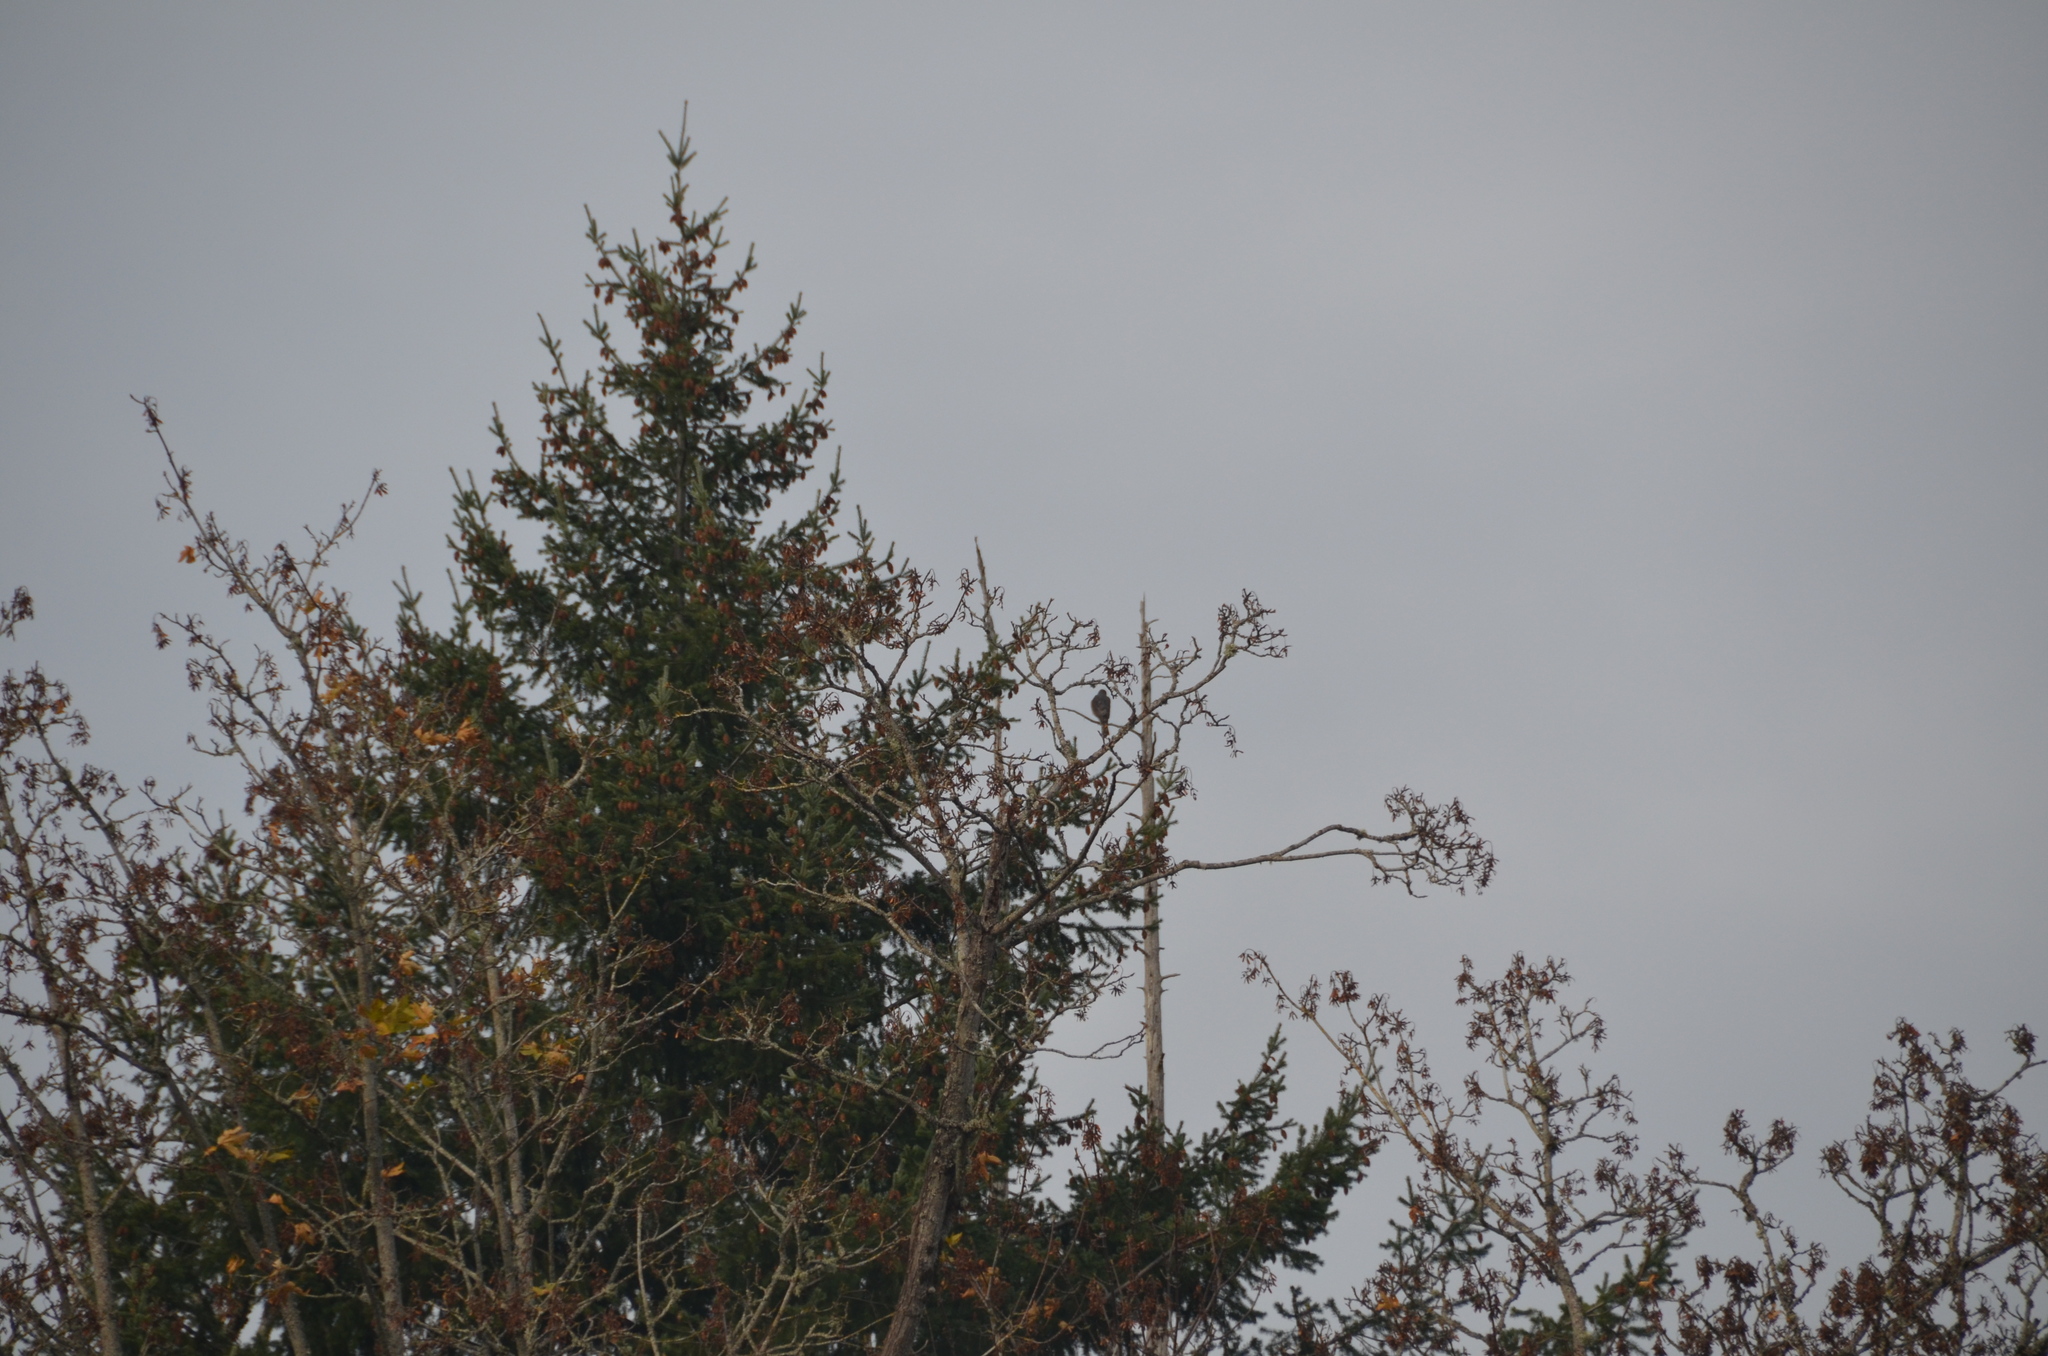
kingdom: Animalia
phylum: Chordata
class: Aves
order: Accipitriformes
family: Accipitridae
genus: Accipiter
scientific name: Accipiter cooperii
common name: Cooper's hawk
